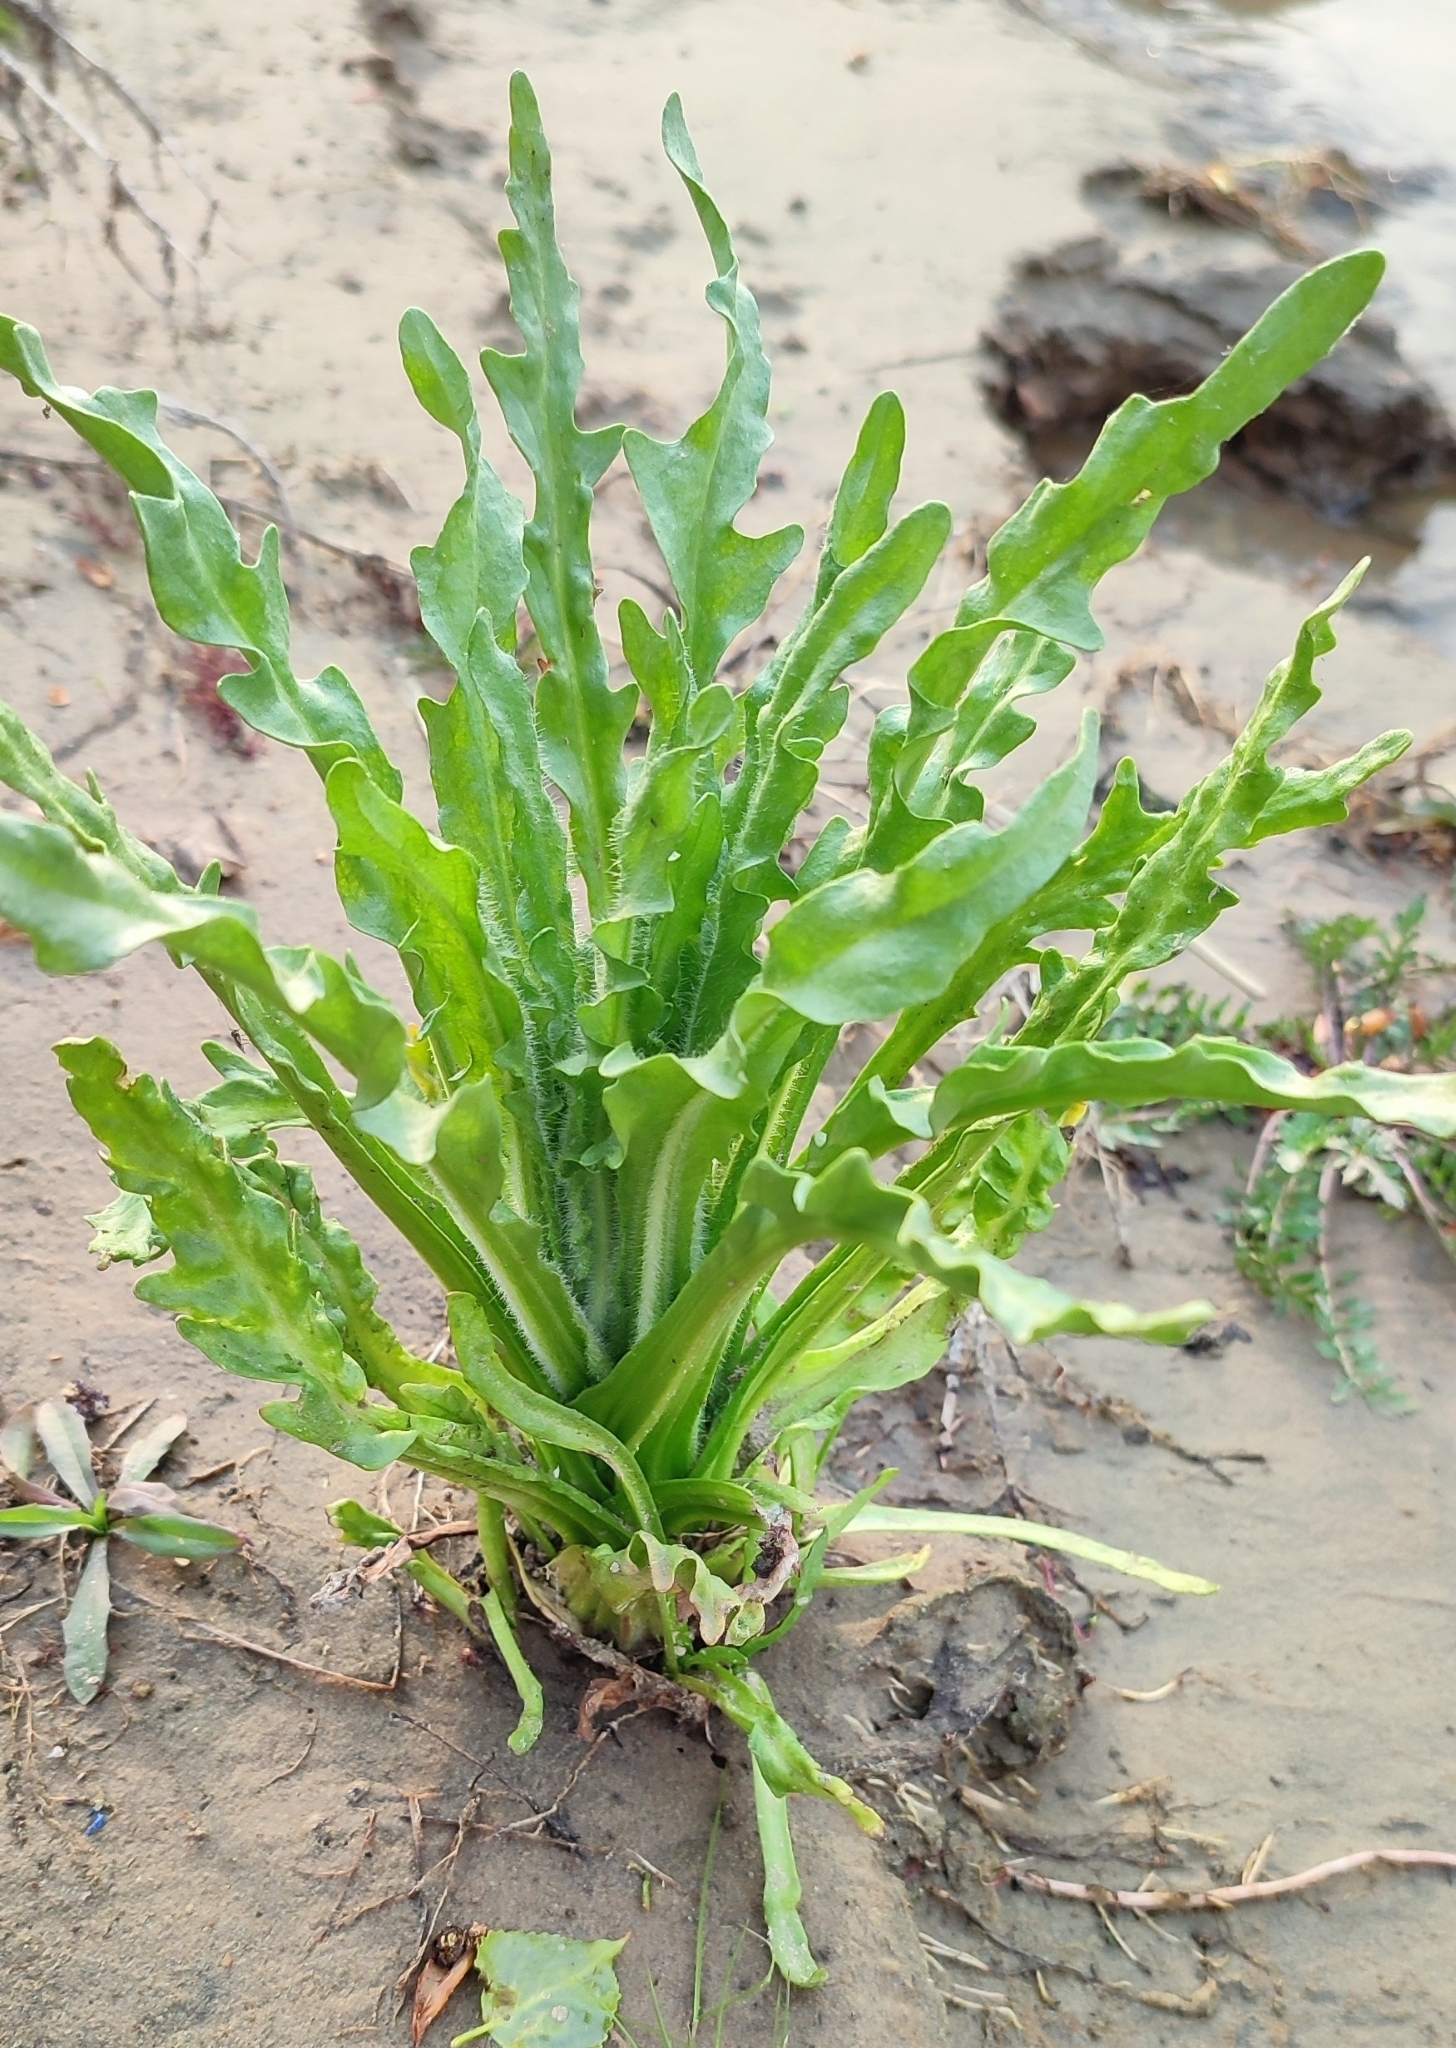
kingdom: Plantae
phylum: Tracheophyta
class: Magnoliopsida
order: Asterales
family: Asteraceae
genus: Tephroseris
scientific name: Tephroseris palustris
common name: Marsh fleawort
